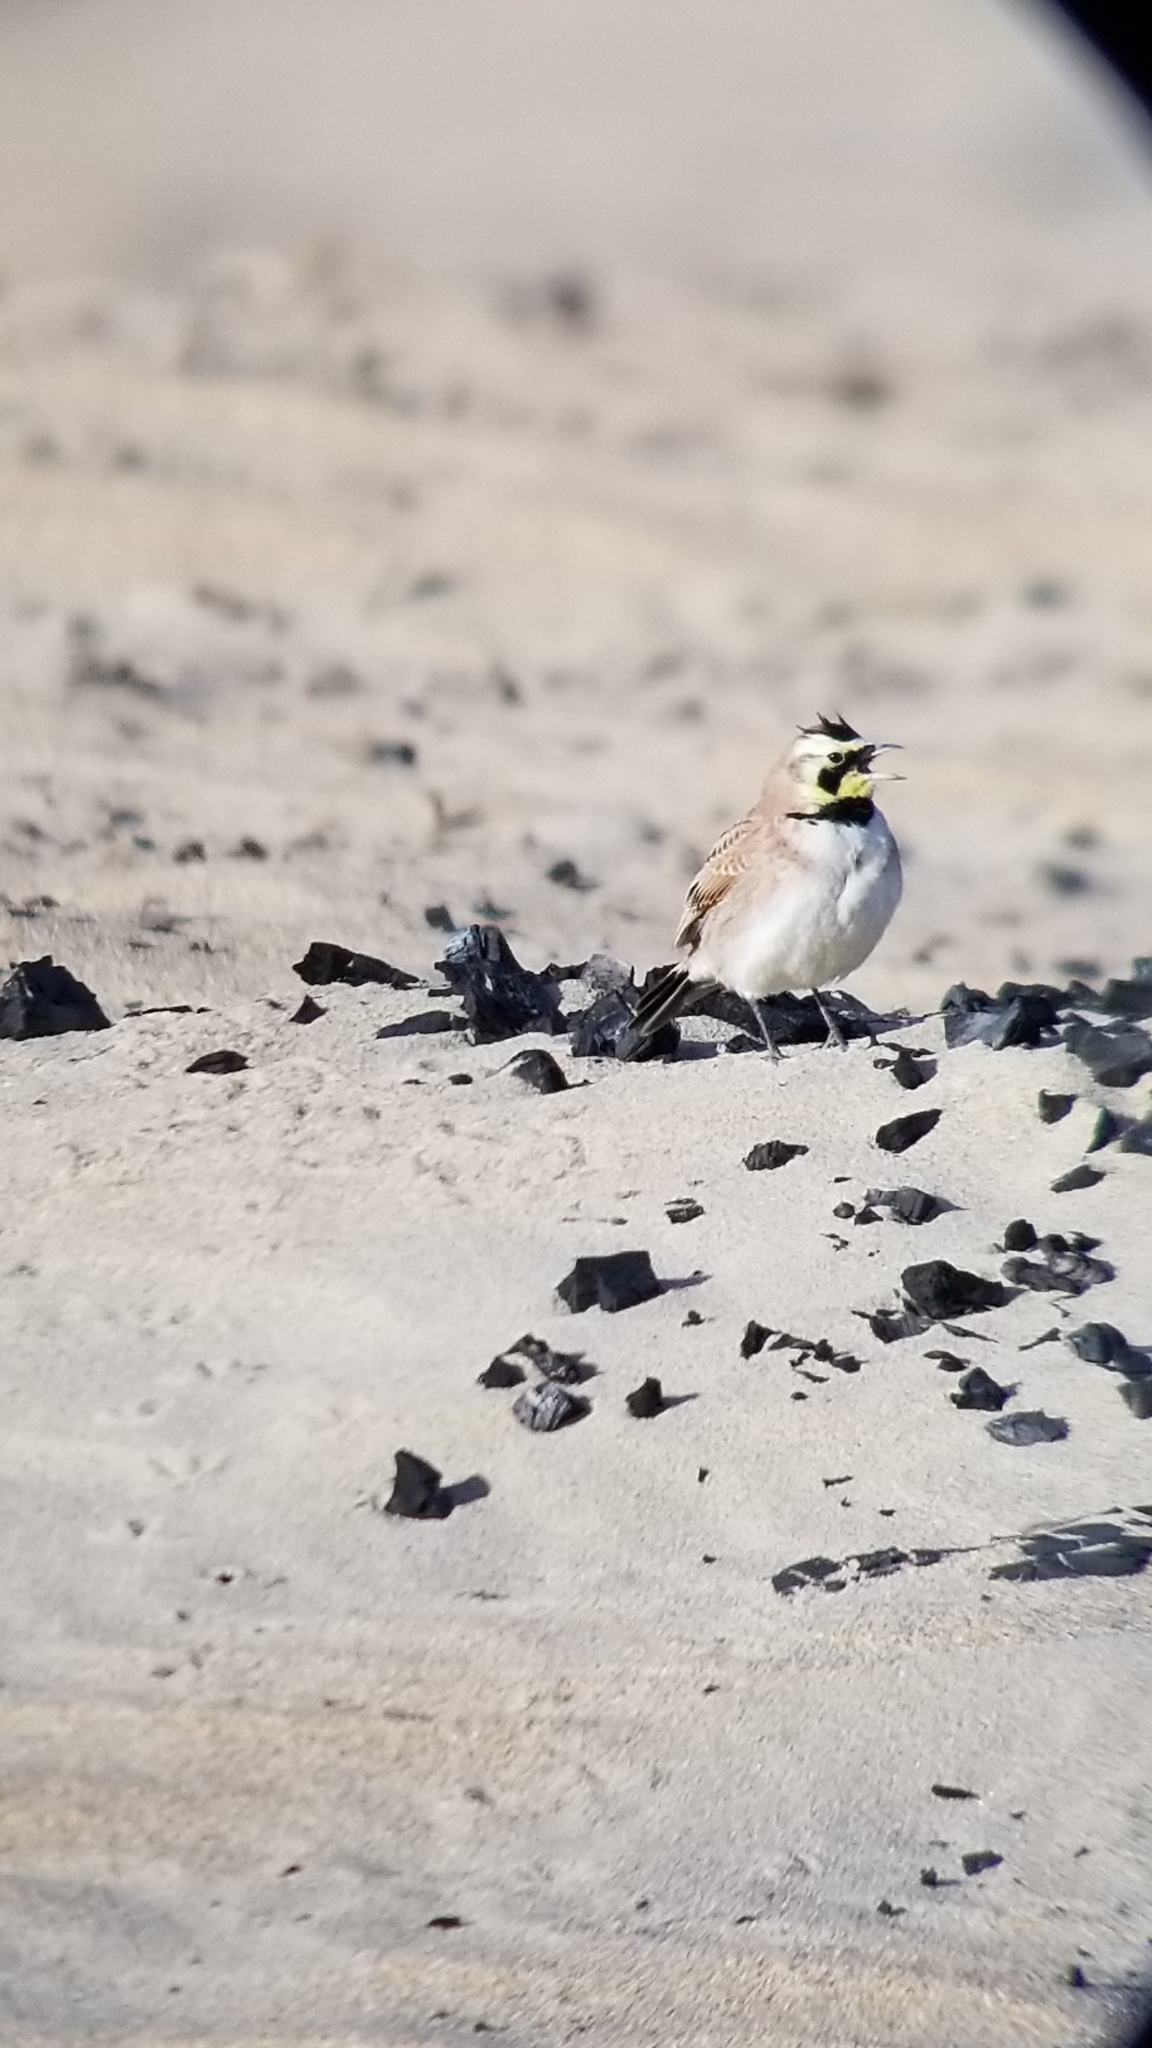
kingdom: Animalia
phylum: Chordata
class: Aves
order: Passeriformes
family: Alaudidae
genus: Eremophila
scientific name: Eremophila alpestris
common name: Horned lark
